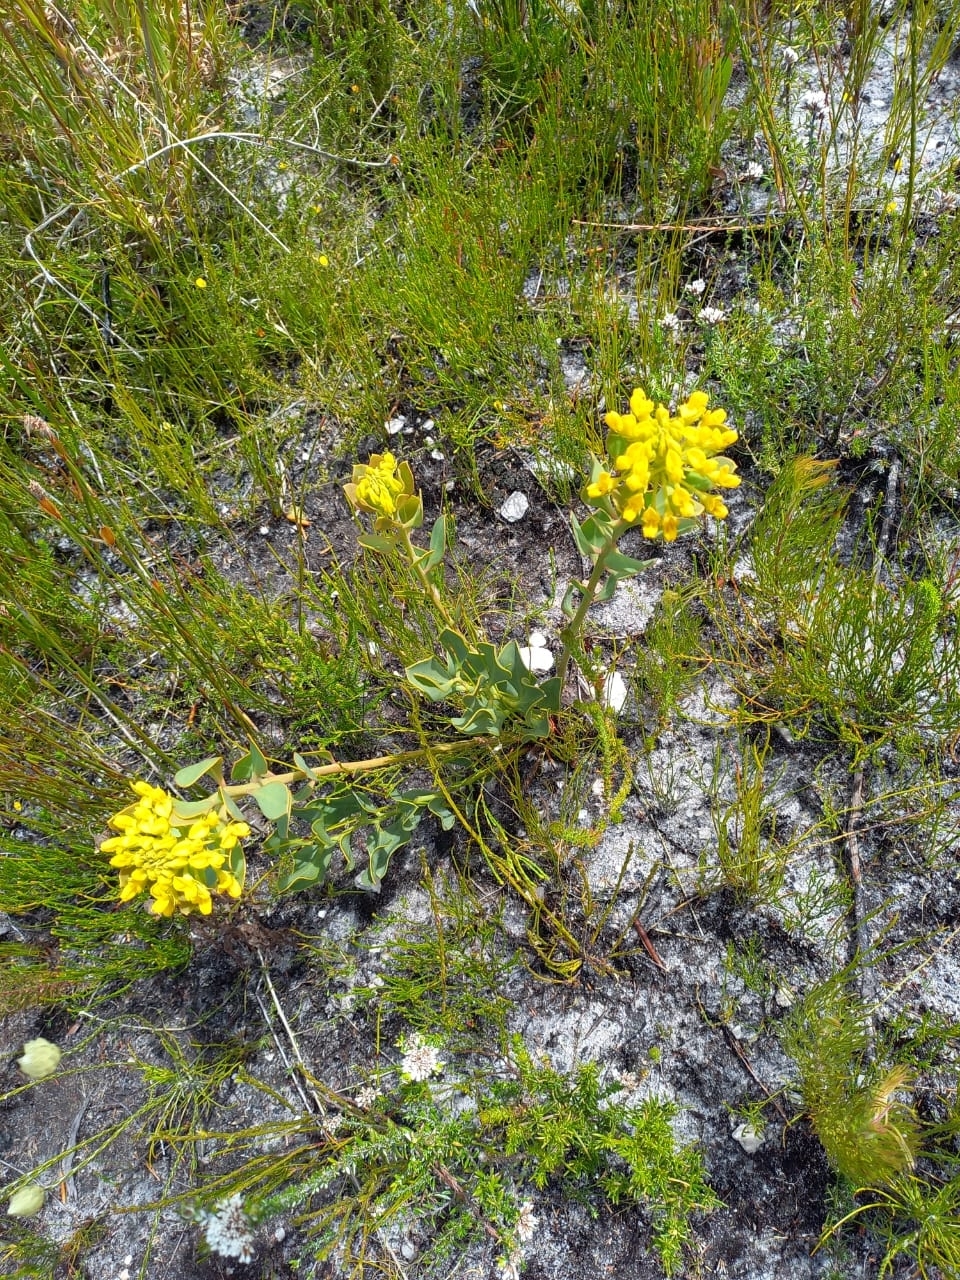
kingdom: Plantae
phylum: Tracheophyta
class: Magnoliopsida
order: Fabales
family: Fabaceae
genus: Rafnia
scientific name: Rafnia capensis
